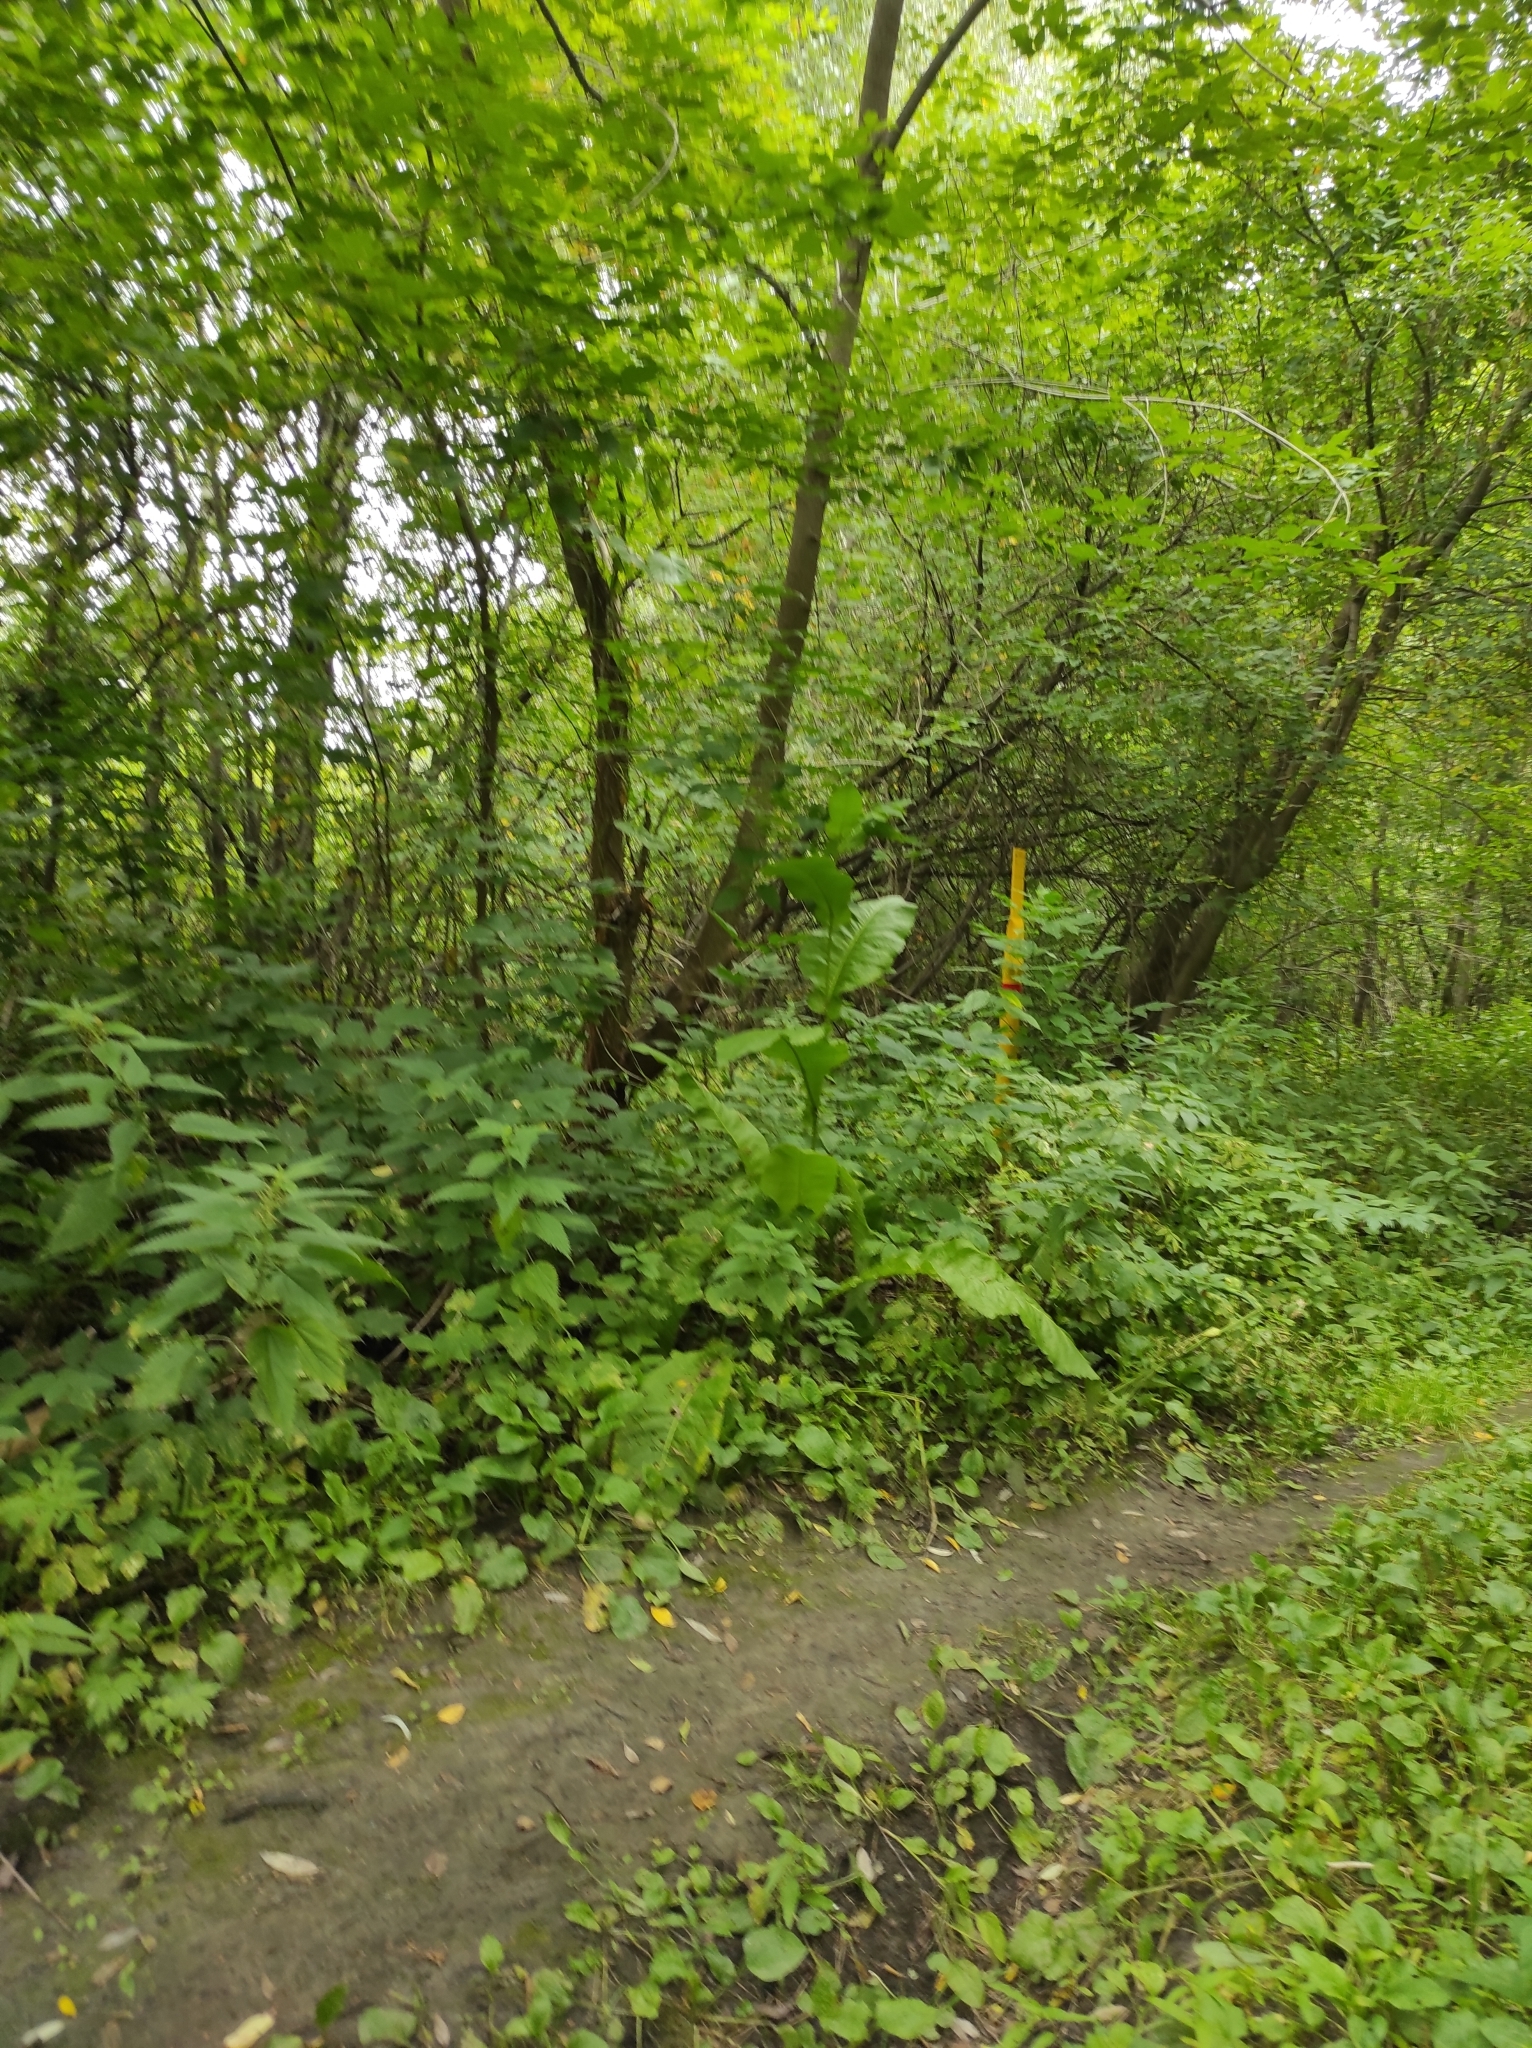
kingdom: Plantae
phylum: Tracheophyta
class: Magnoliopsida
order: Asterales
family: Asteraceae
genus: Inula
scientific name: Inula helenium
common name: Elecampane
